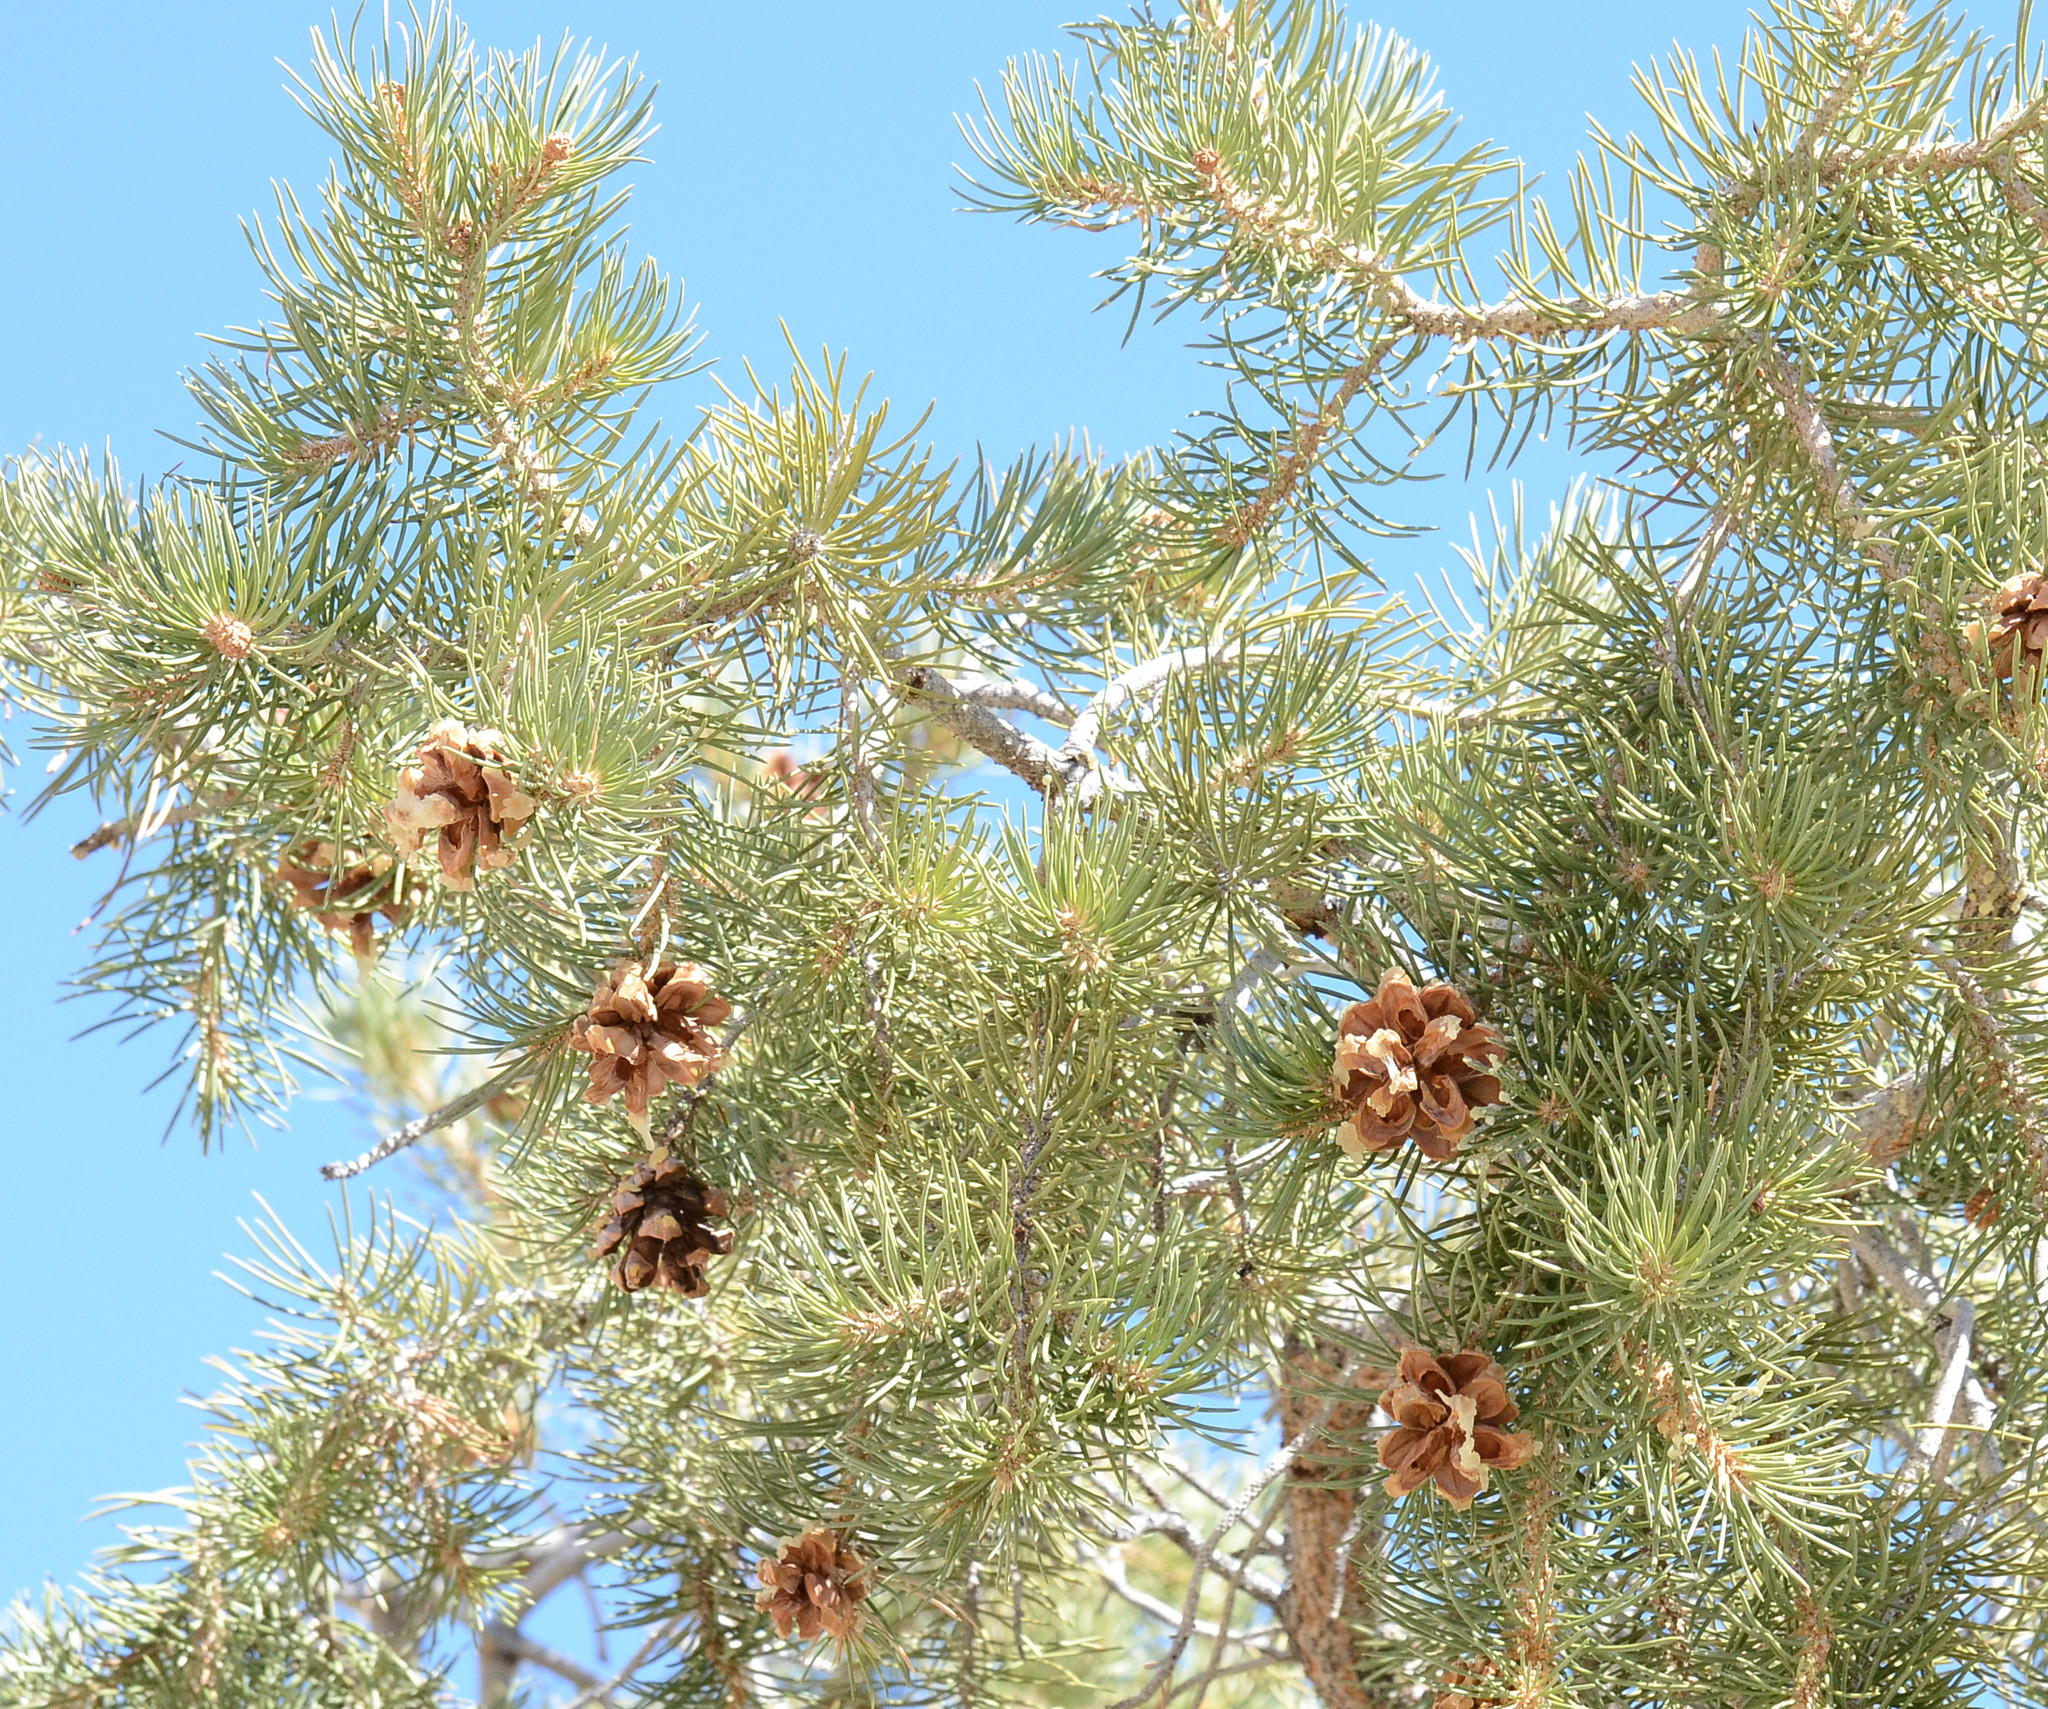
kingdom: Plantae
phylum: Tracheophyta
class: Pinopsida
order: Pinales
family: Pinaceae
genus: Pinus
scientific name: Pinus monophylla
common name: One-leaved nut pine
